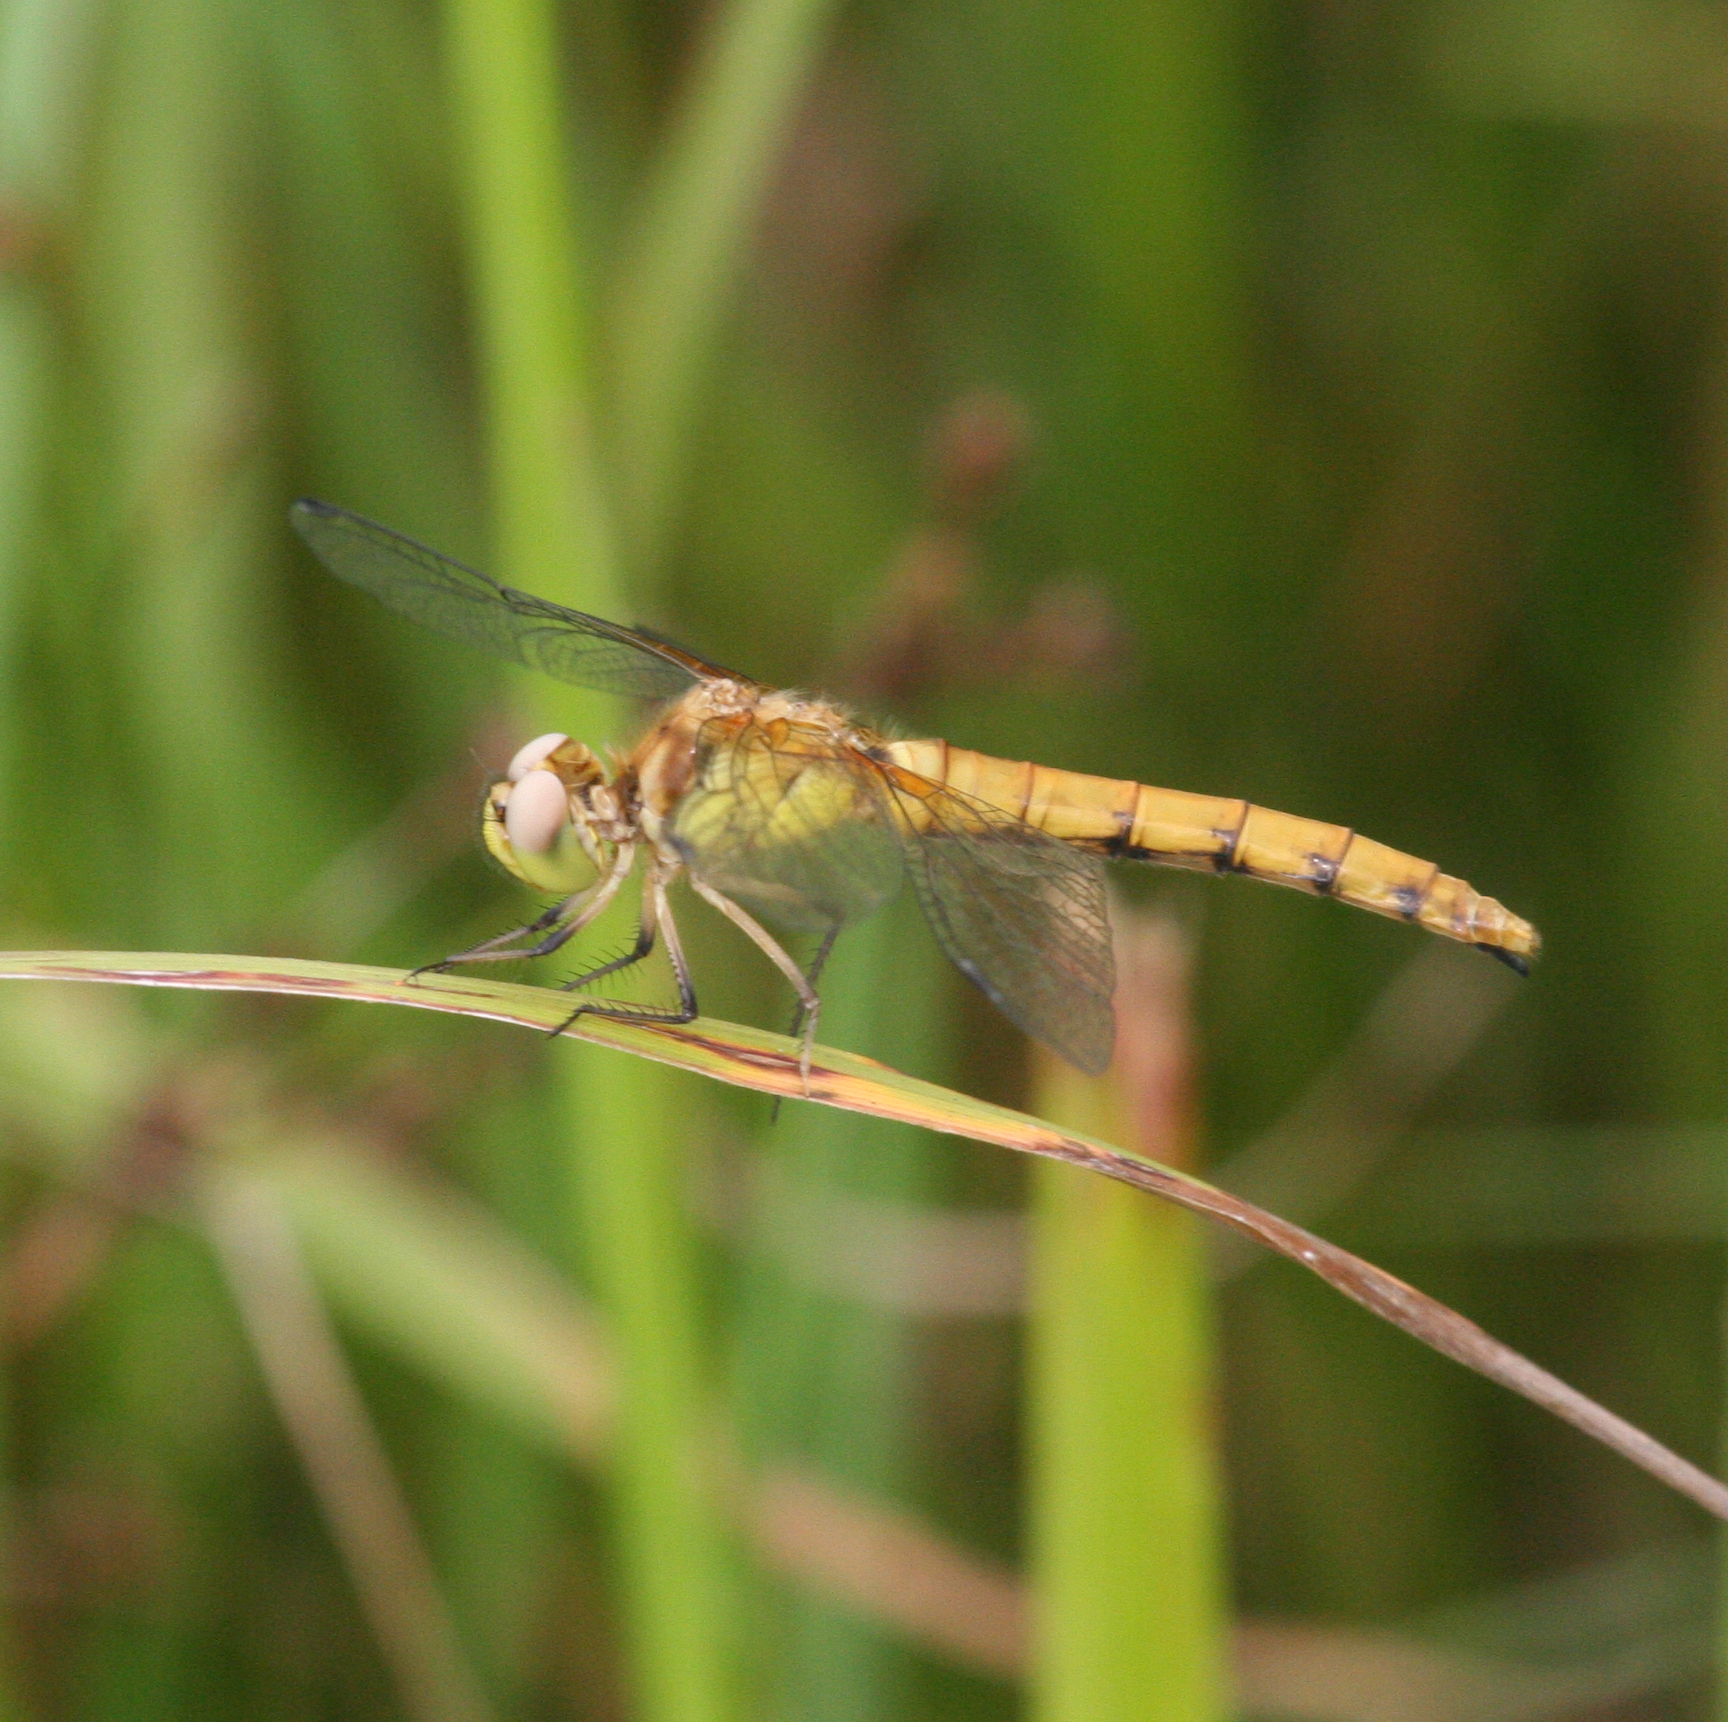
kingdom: Animalia
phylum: Arthropoda
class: Insecta
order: Odonata
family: Libellulidae
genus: Sympetrum
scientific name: Sympetrum cordulegaster
